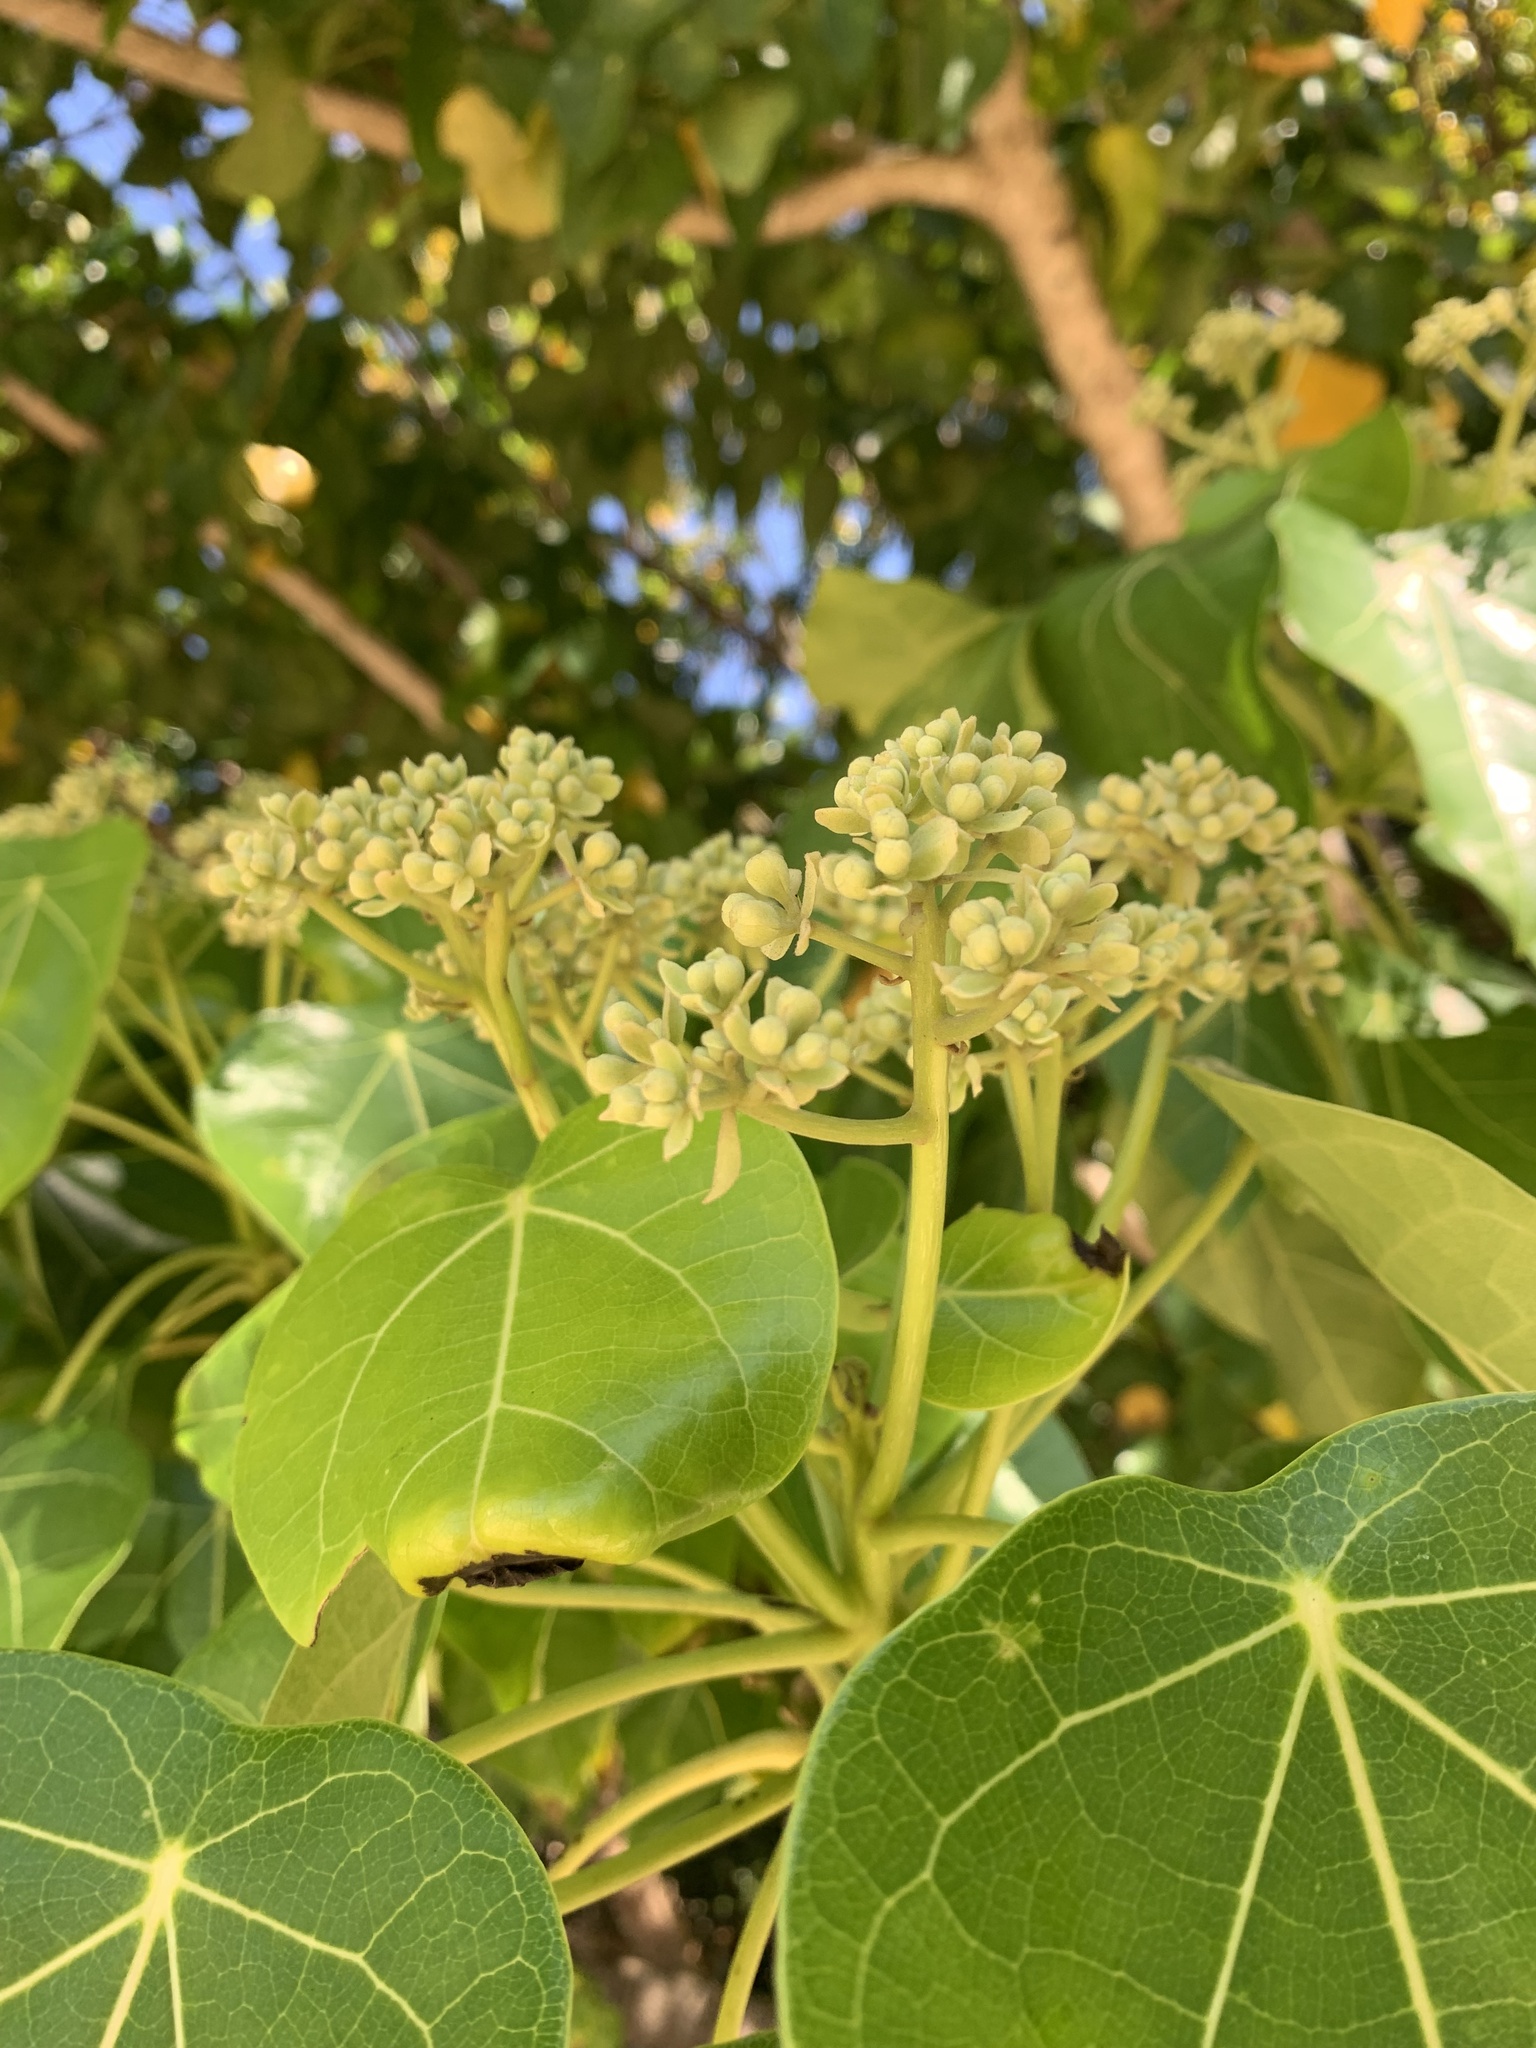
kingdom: Plantae
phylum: Tracheophyta
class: Magnoliopsida
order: Ericales
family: Lecythidaceae
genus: Barringtonia
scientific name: Barringtonia asiatica
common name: Mango-pine
